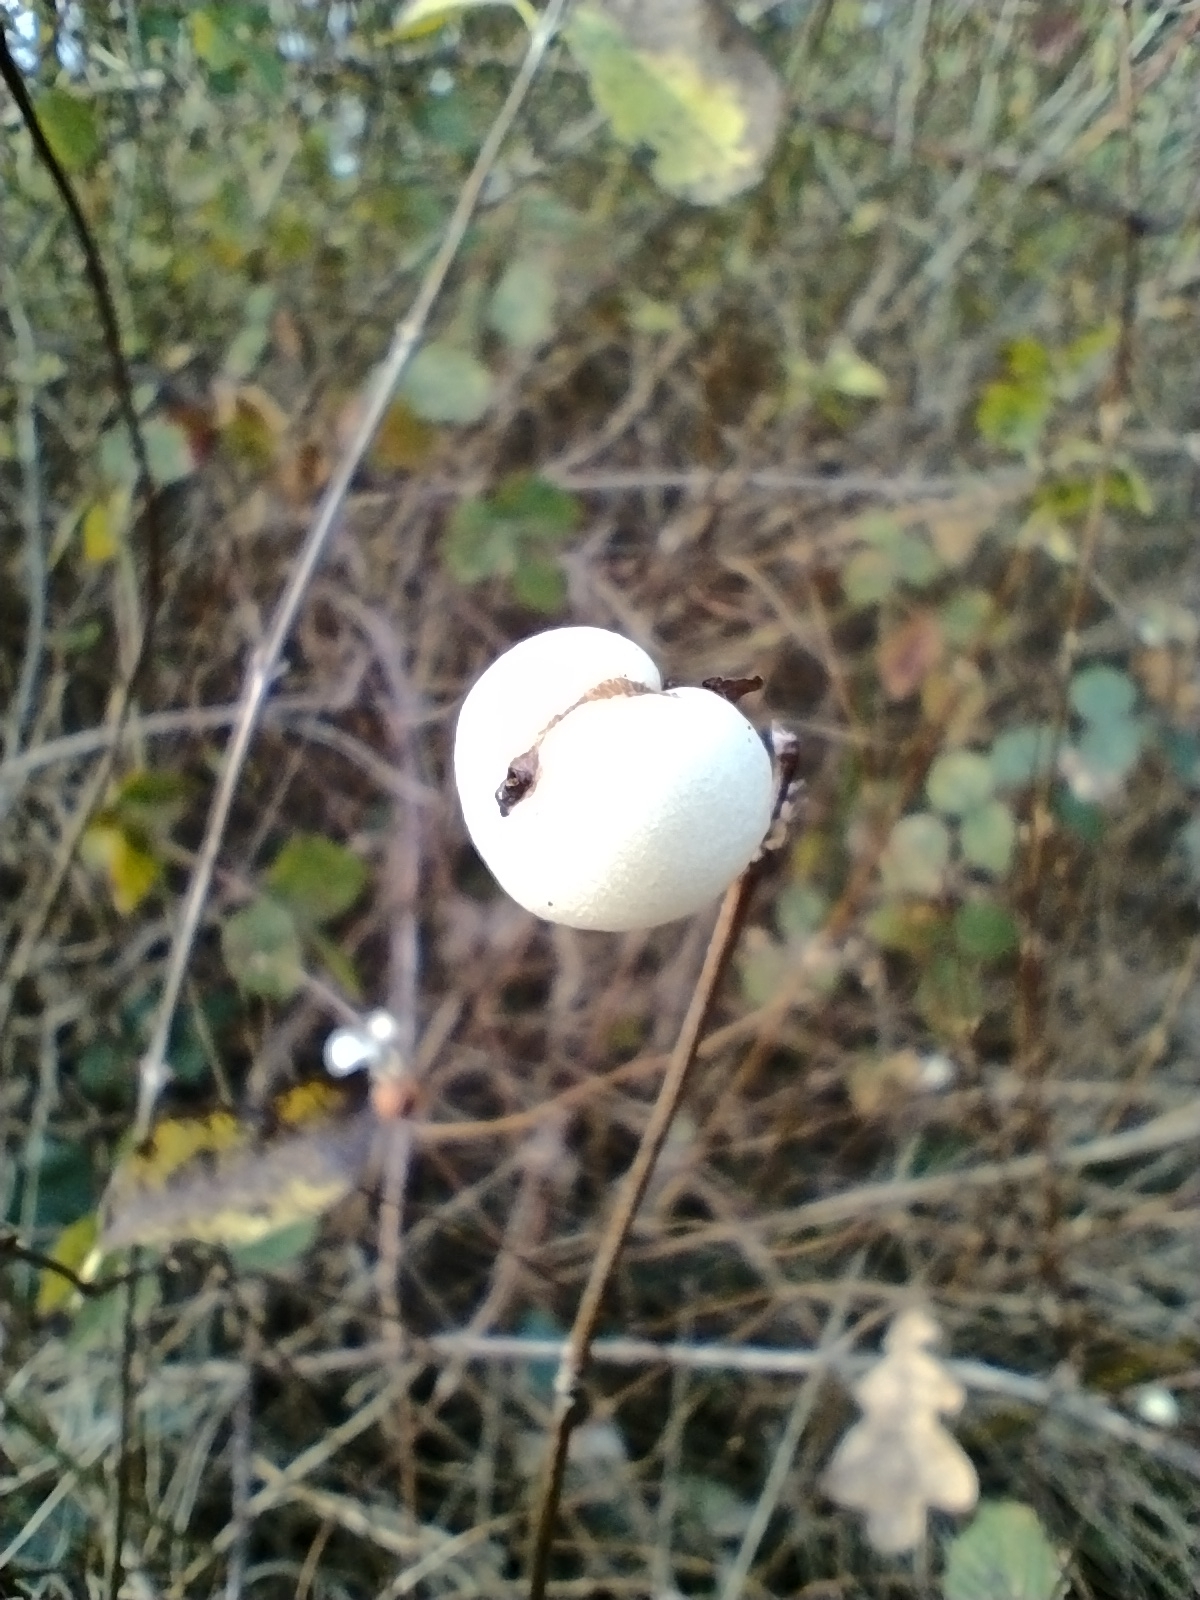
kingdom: Plantae
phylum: Tracheophyta
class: Magnoliopsida
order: Dipsacales
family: Caprifoliaceae
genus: Symphoricarpos
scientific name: Symphoricarpos albus
